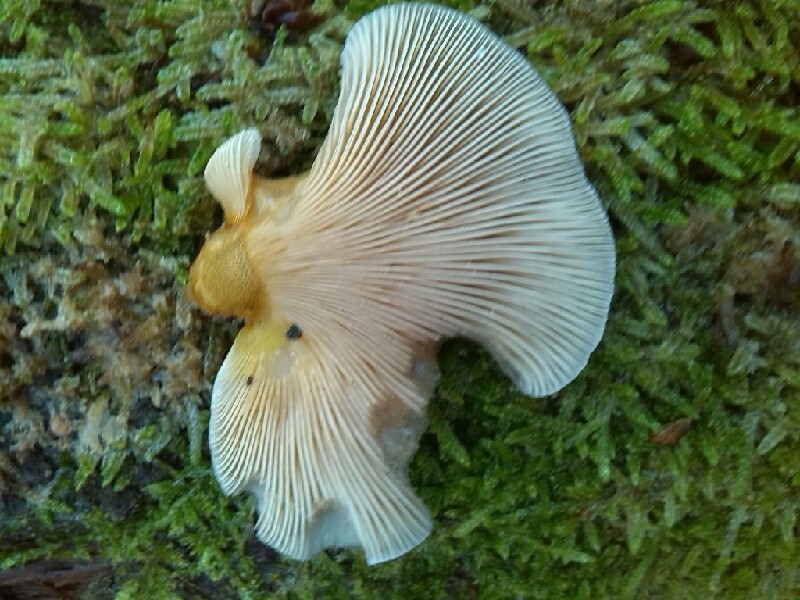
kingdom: Fungi
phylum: Basidiomycota
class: Agaricomycetes
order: Agaricales
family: Sarcomyxaceae
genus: Sarcomyxa
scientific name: Sarcomyxa serotina
